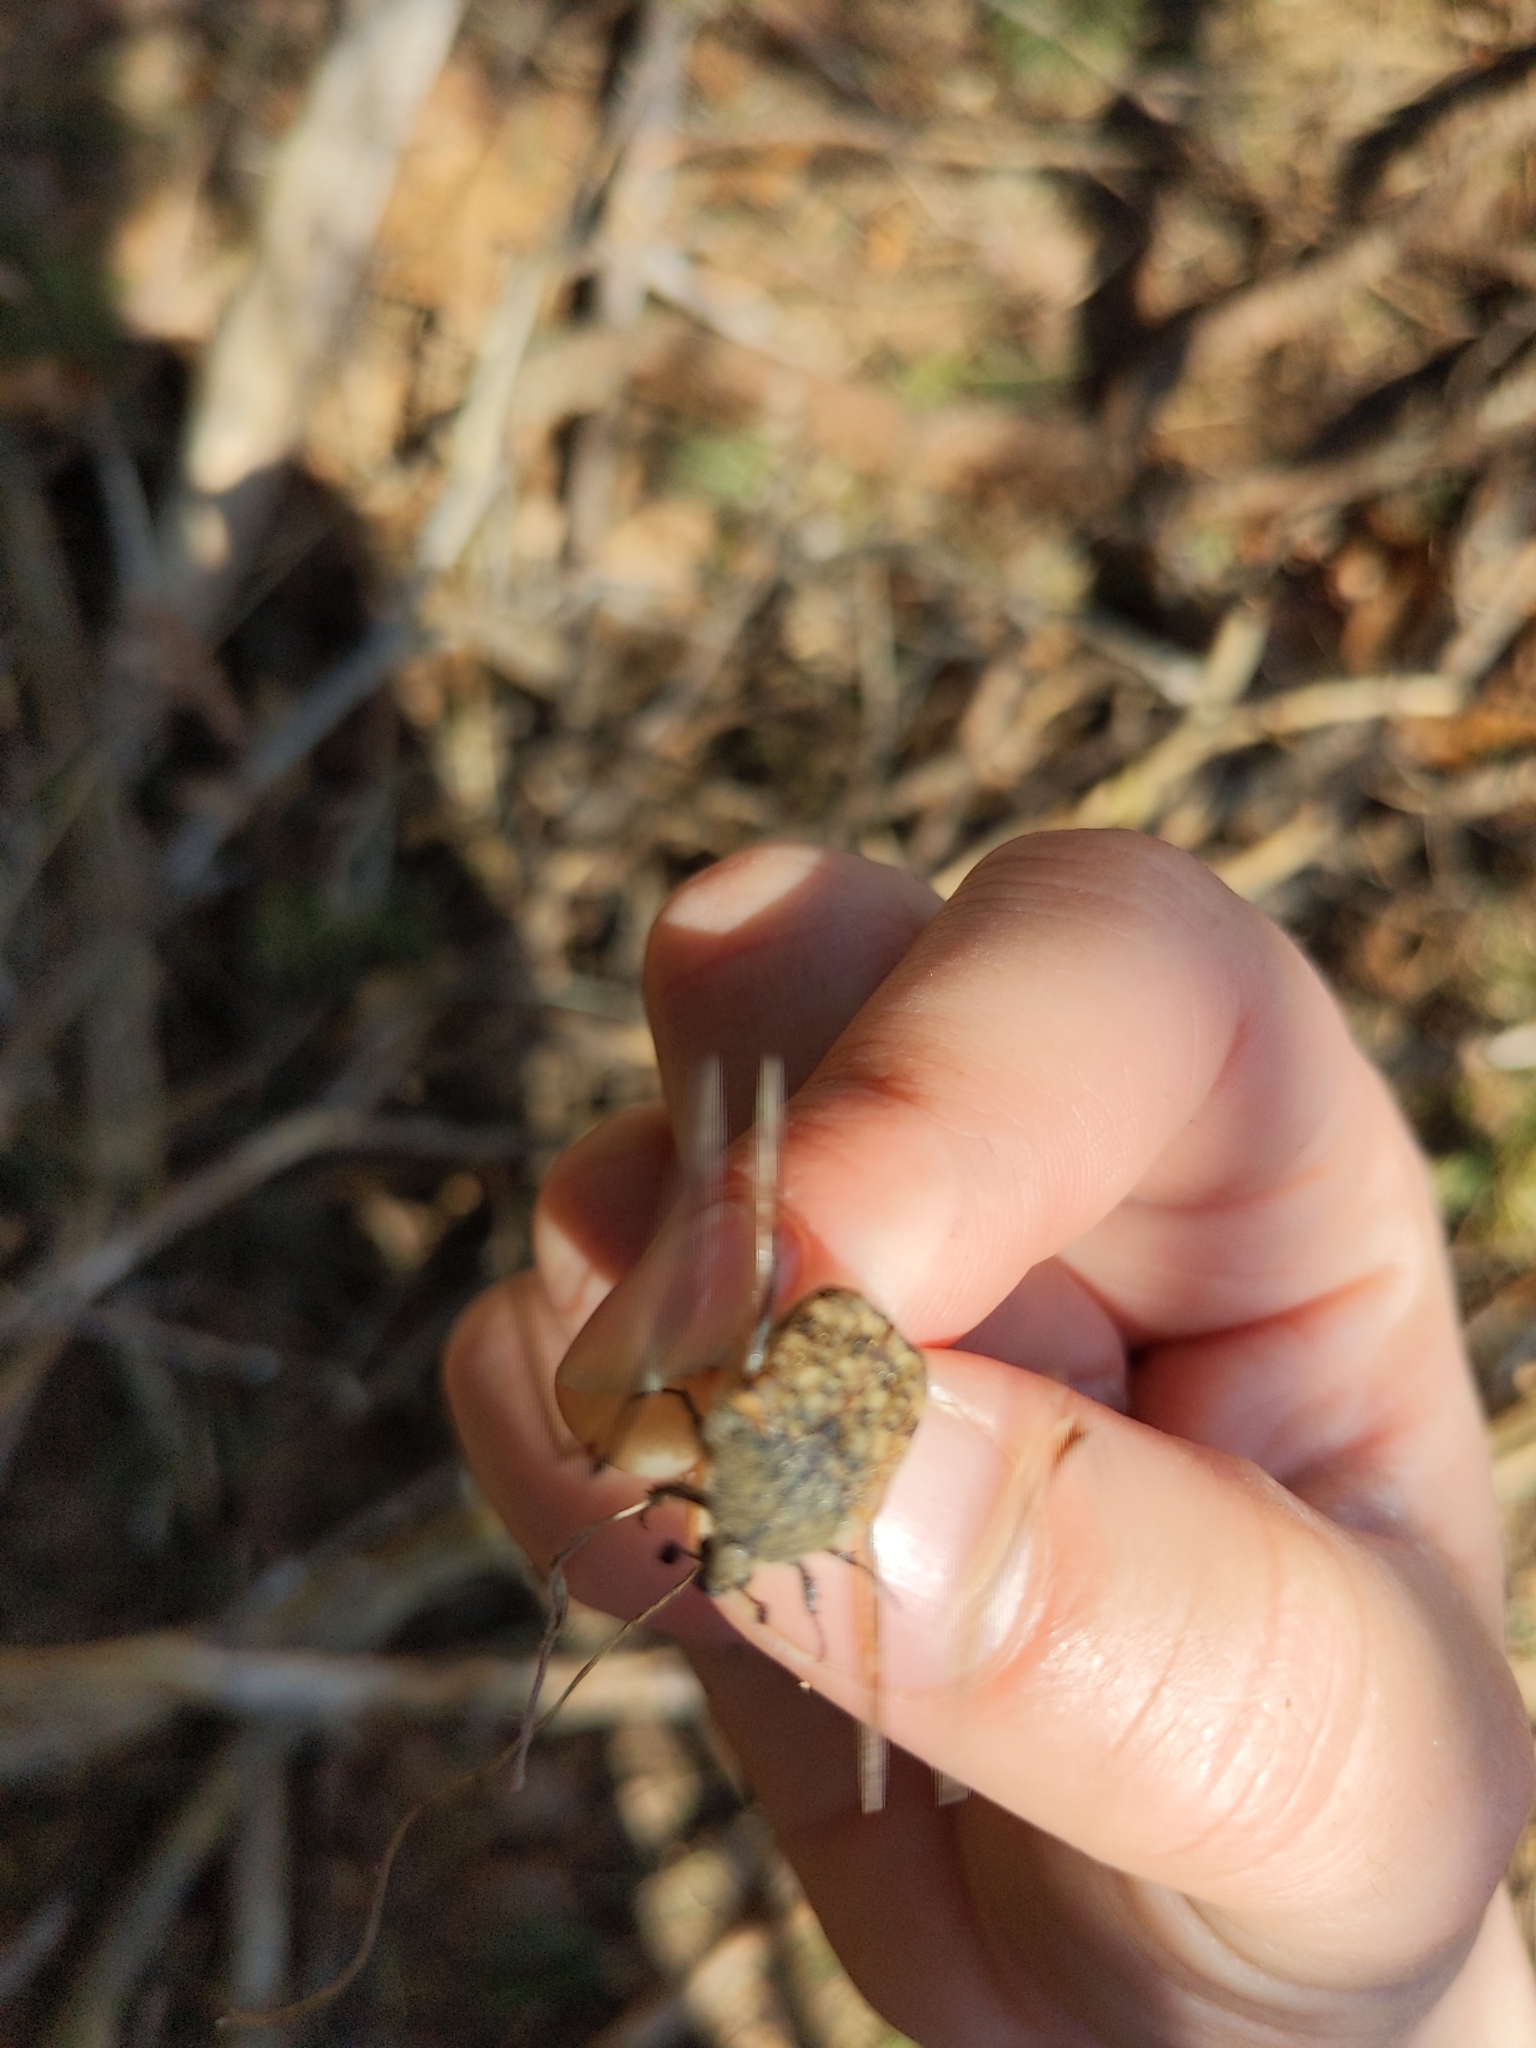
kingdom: Animalia
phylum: Arthropoda
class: Insecta
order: Coleoptera
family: Scarabaeidae
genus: Euphoria
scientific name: Euphoria inda
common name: Bumble flower beetle
